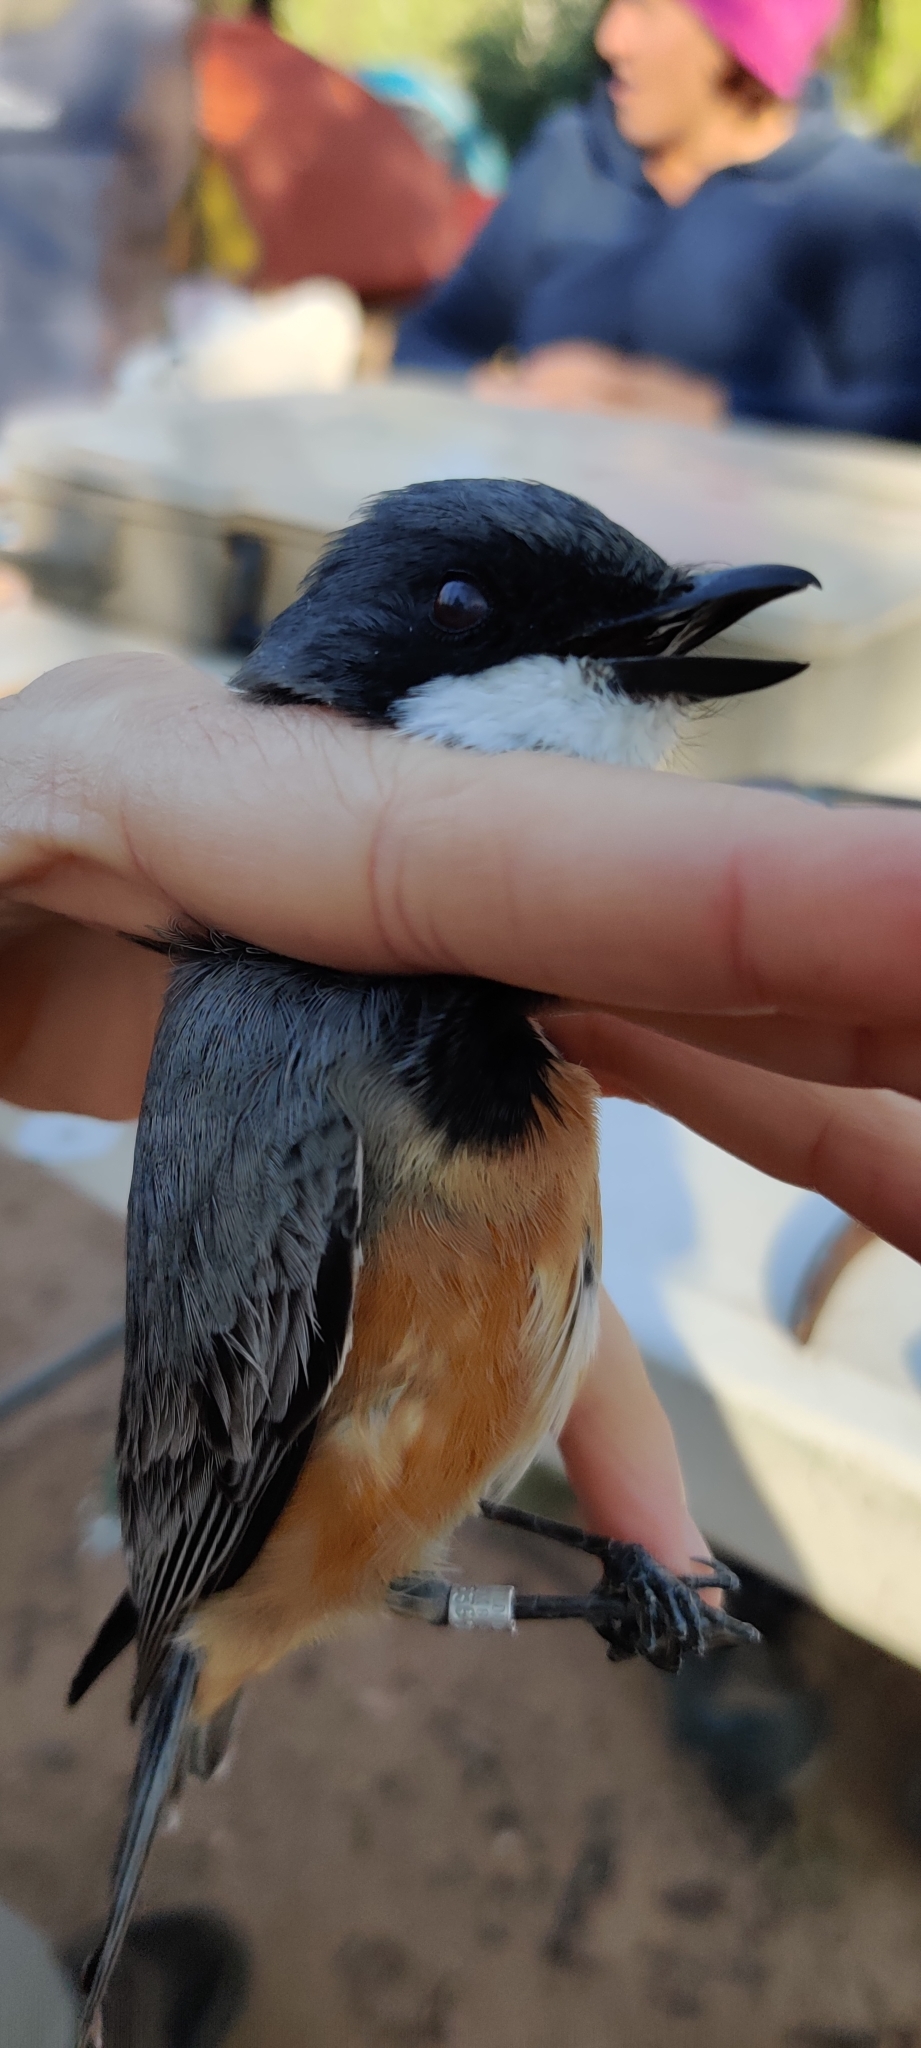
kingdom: Animalia
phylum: Chordata
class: Aves
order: Passeriformes
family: Pachycephalidae
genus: Pachycephala
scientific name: Pachycephala rufiventris
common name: Rufous whistler
